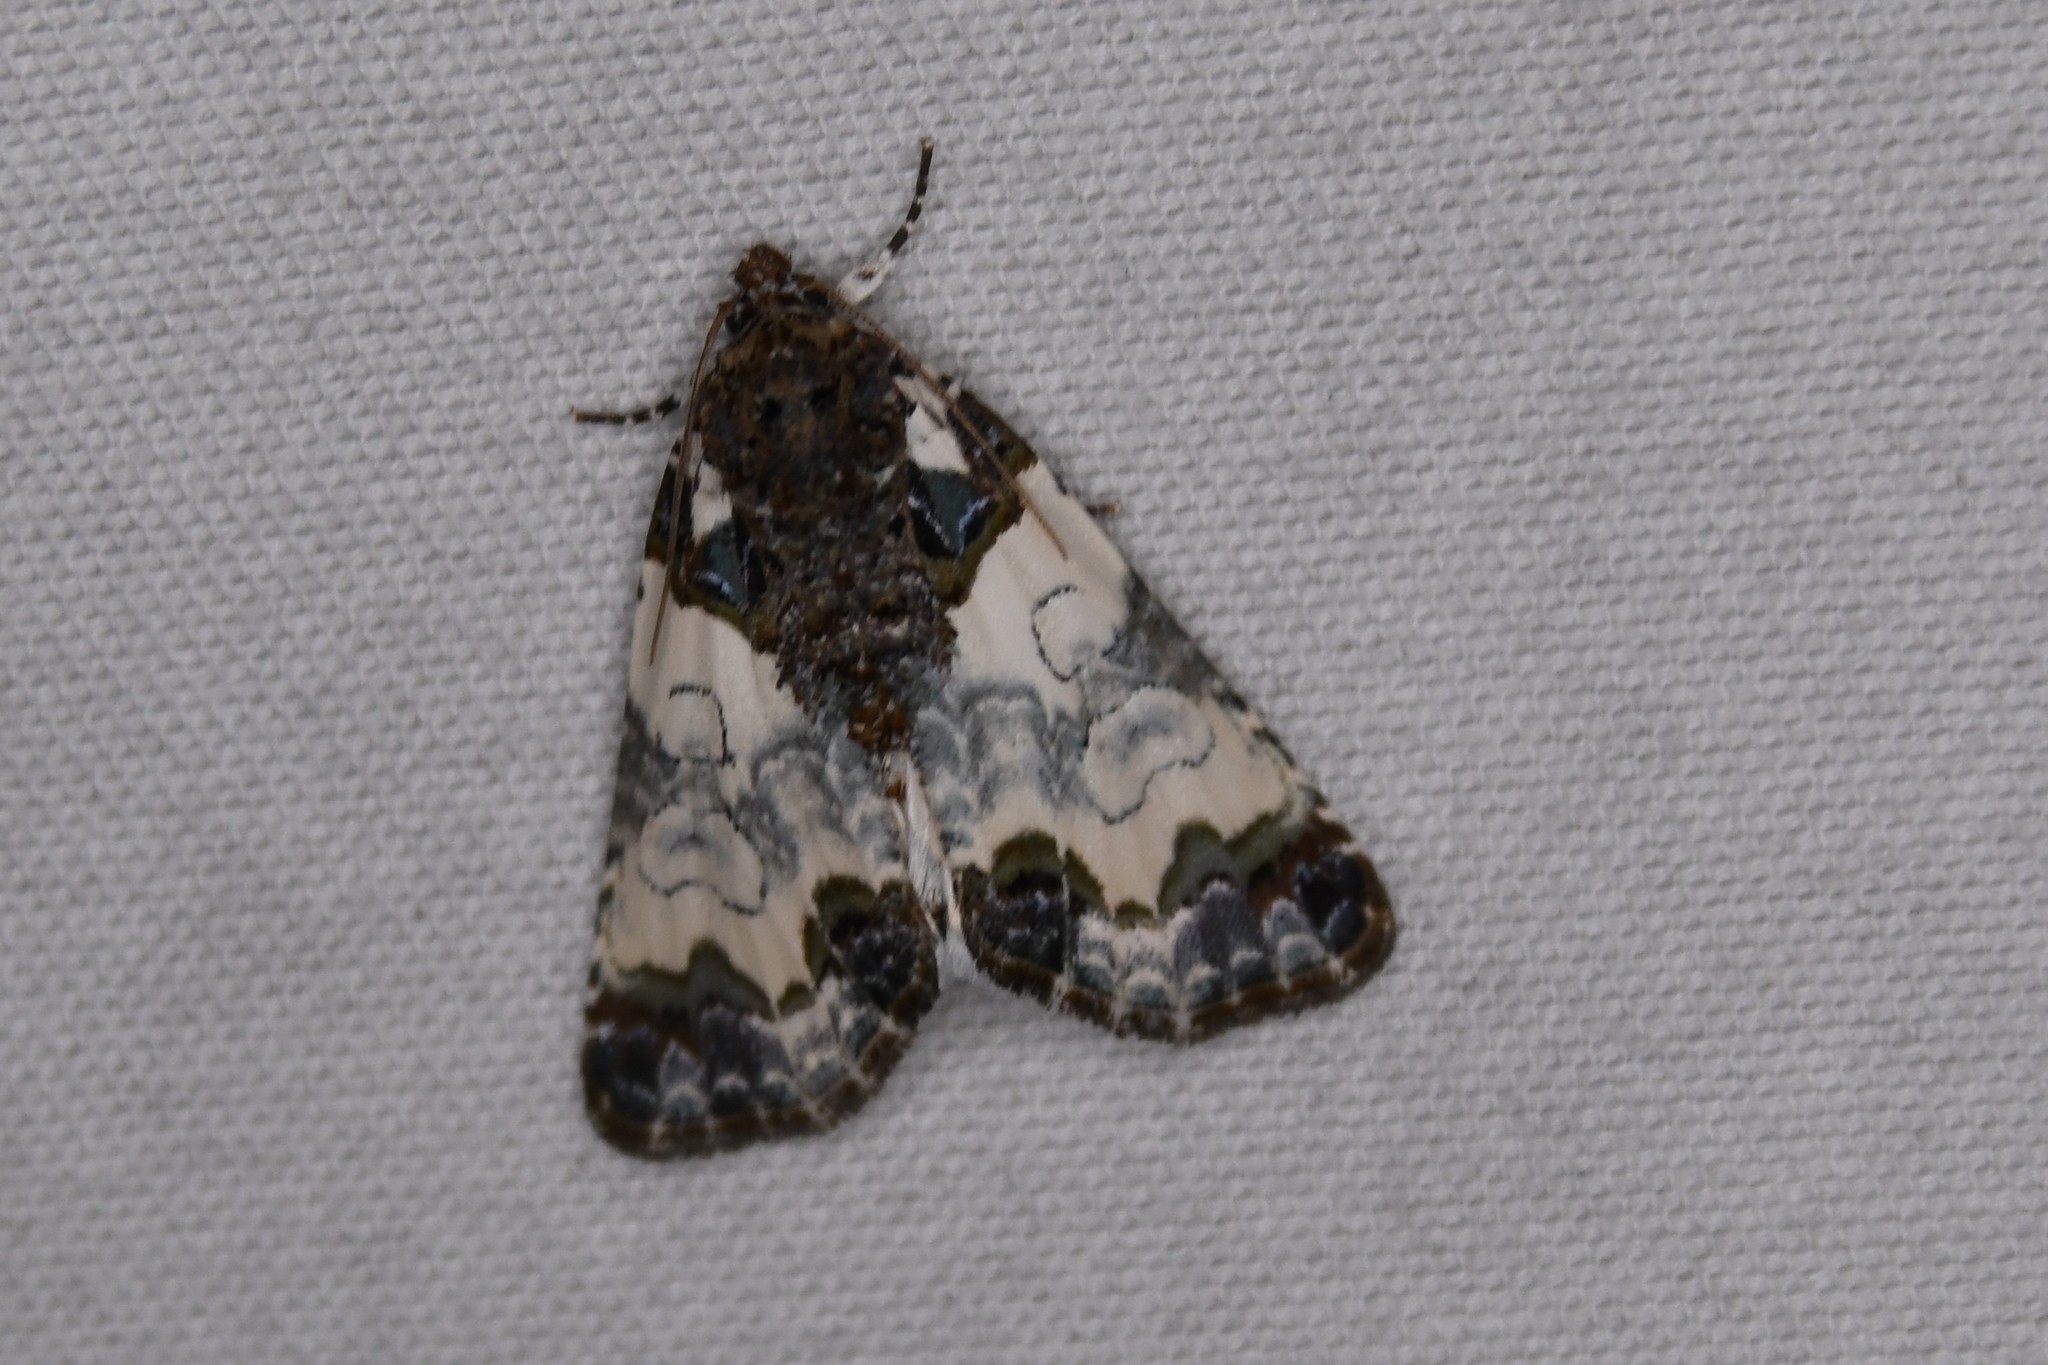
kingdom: Animalia
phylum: Arthropoda
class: Insecta
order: Lepidoptera
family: Noctuidae
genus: Cerma
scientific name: Cerma cerintha
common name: Tufted bird-dropping moth
